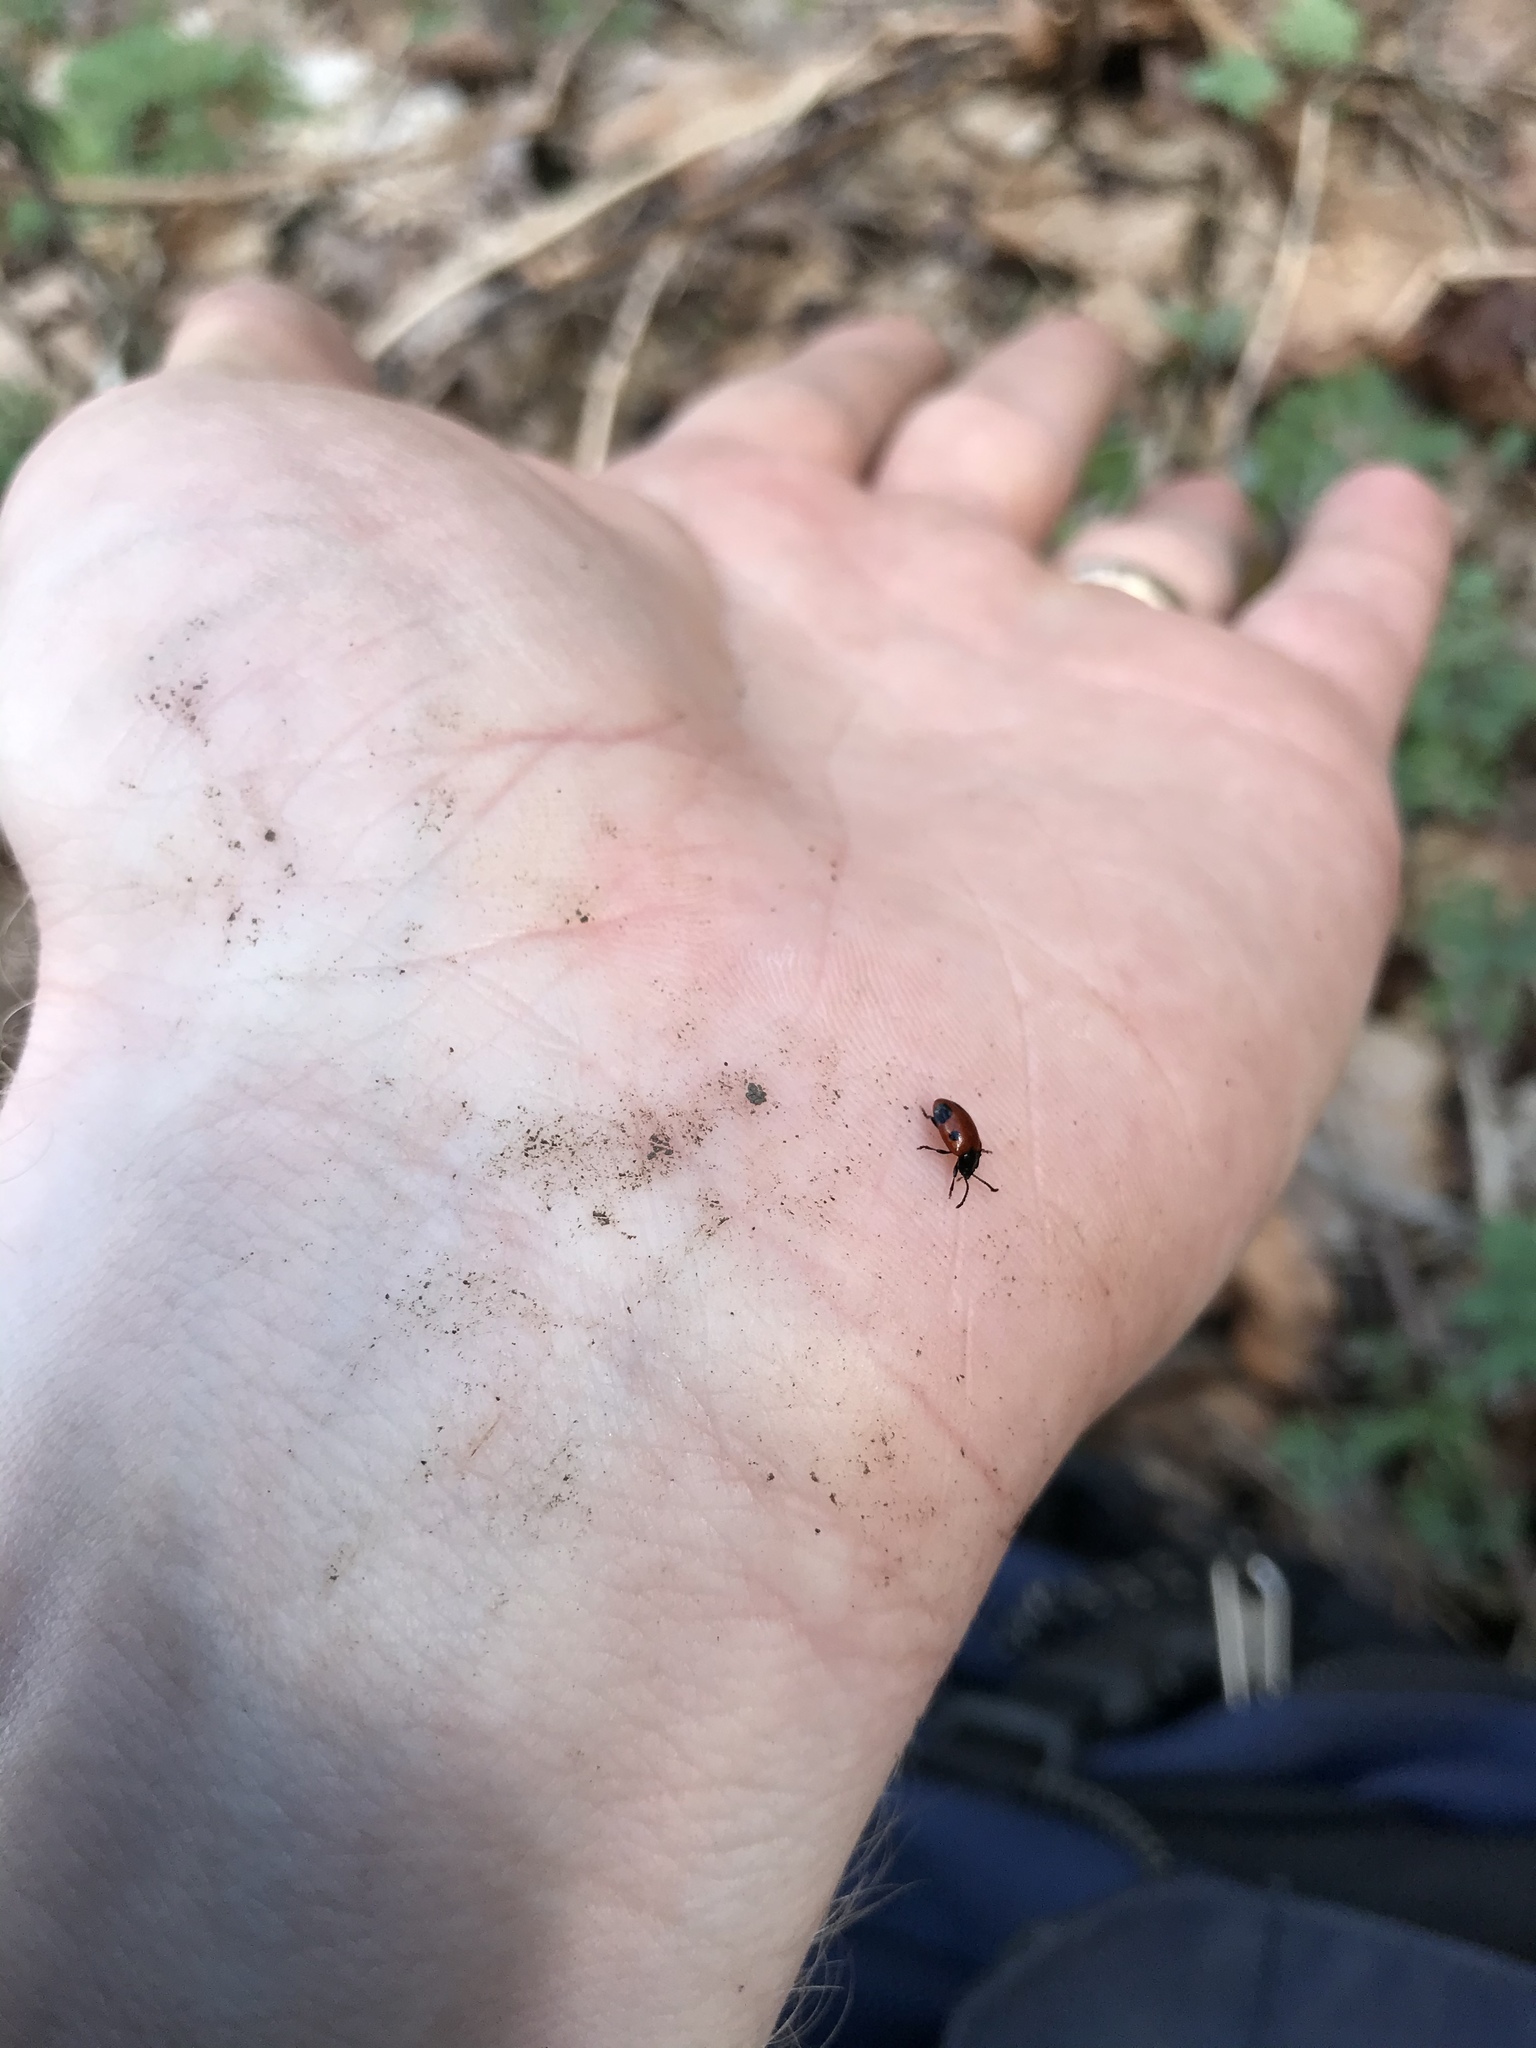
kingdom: Animalia
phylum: Arthropoda
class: Insecta
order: Coleoptera
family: Endomychidae
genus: Endomychus
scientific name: Endomychus biguttatus
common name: Handsome fungus beetle
